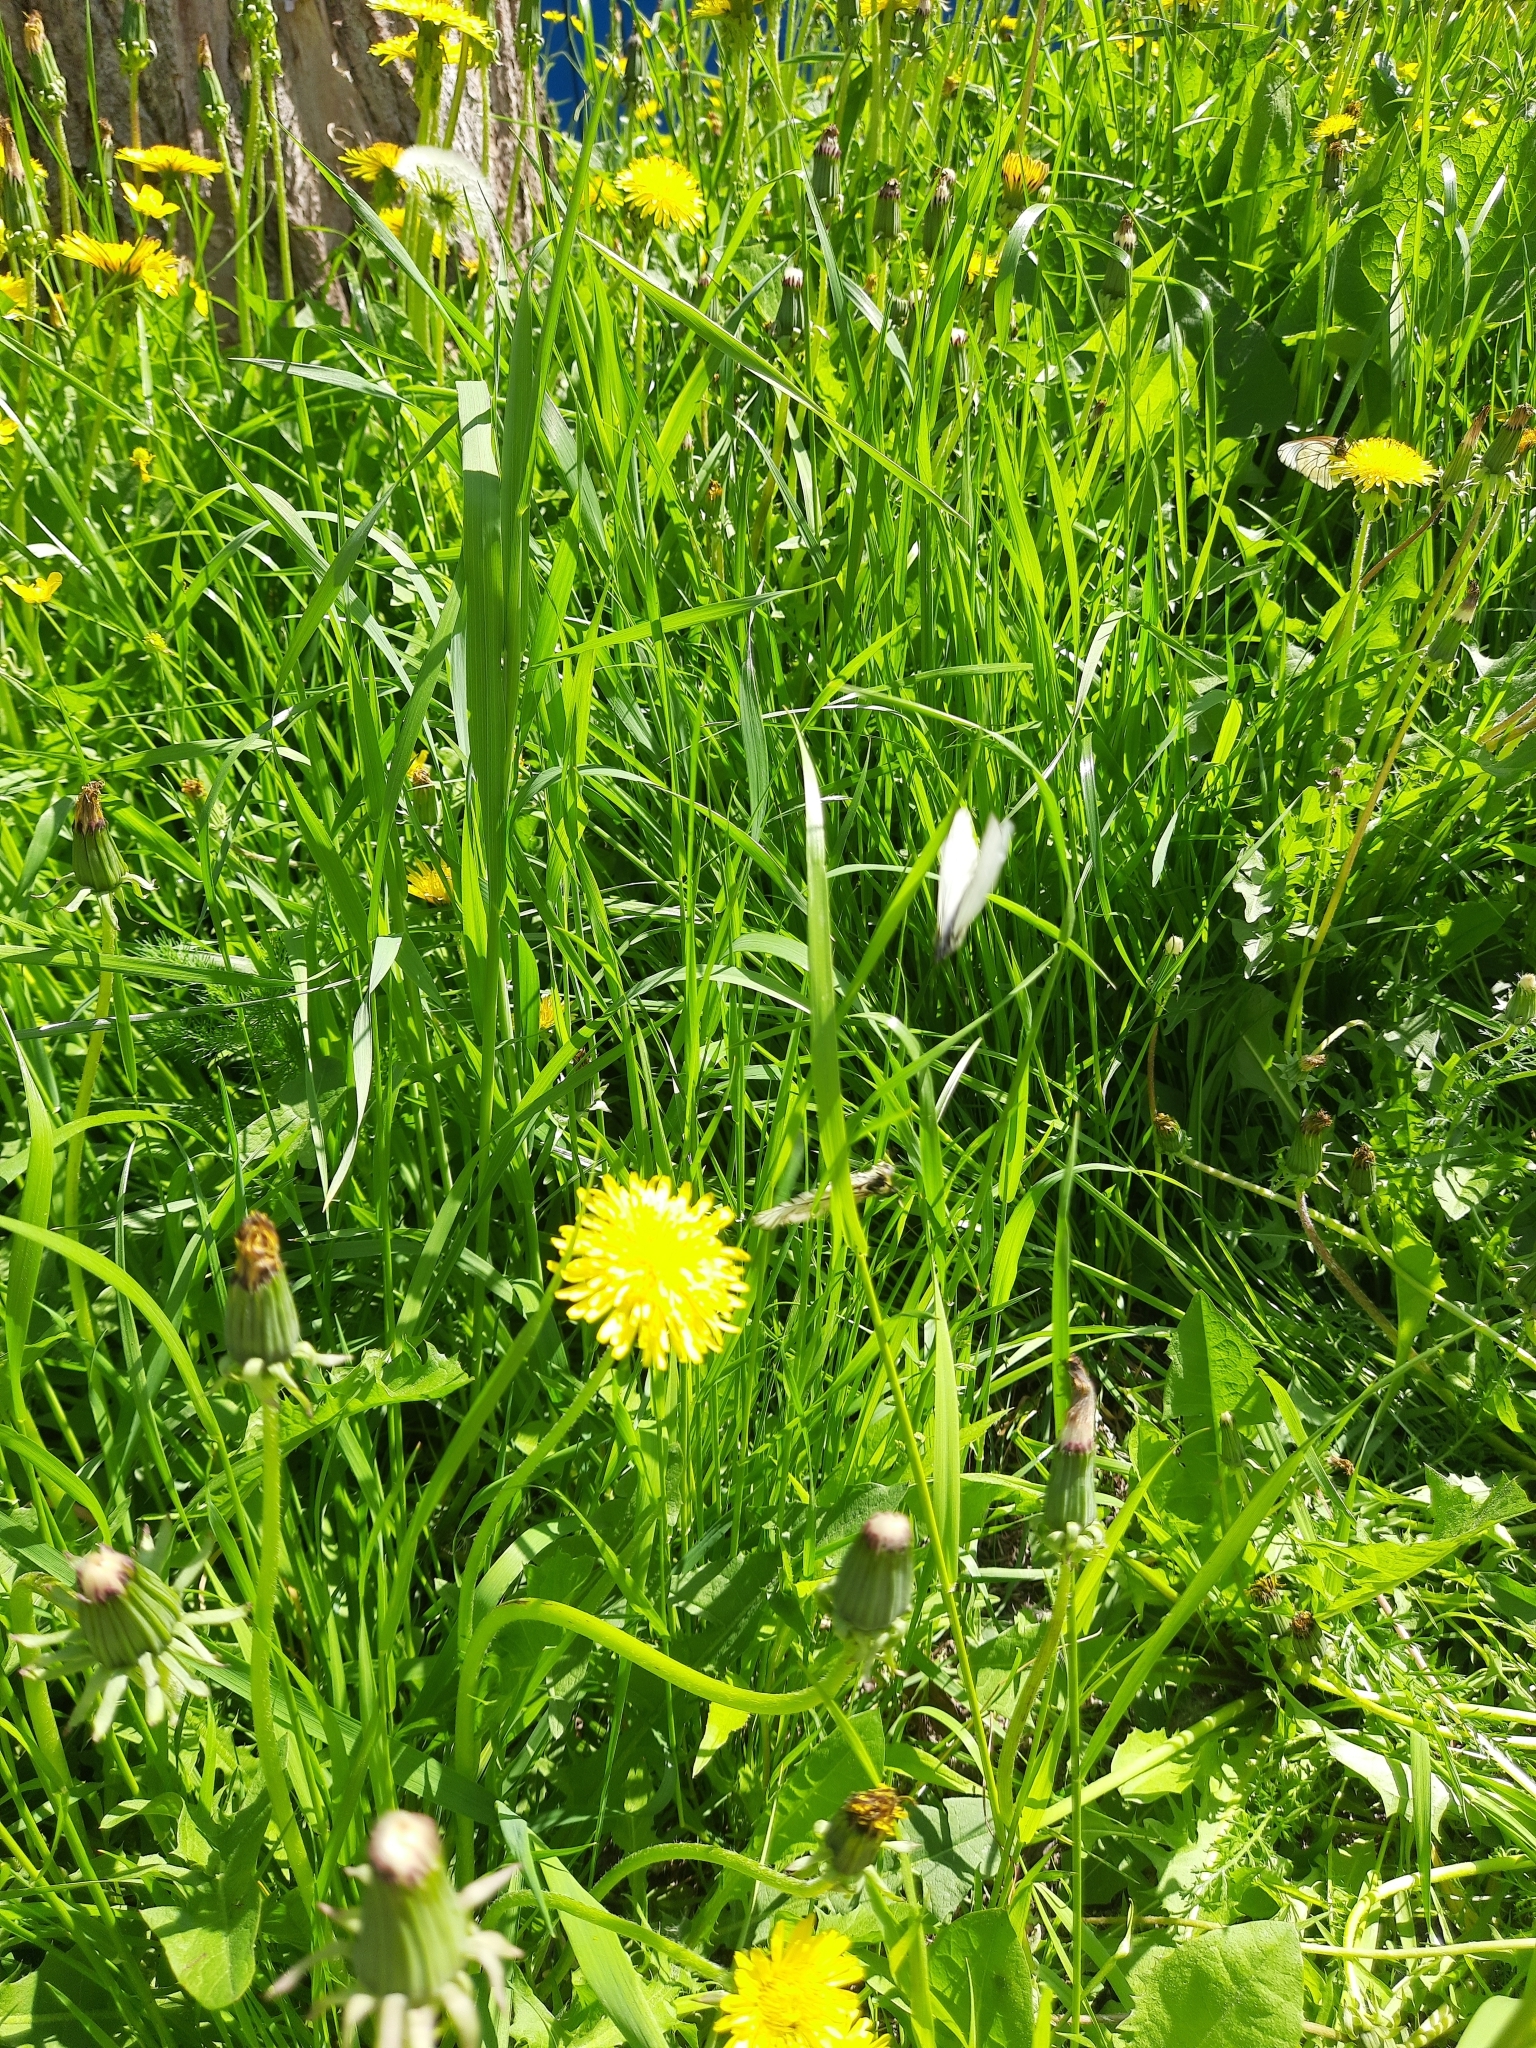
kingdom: Plantae
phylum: Tracheophyta
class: Magnoliopsida
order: Asterales
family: Asteraceae
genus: Taraxacum
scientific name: Taraxacum officinale
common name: Common dandelion
